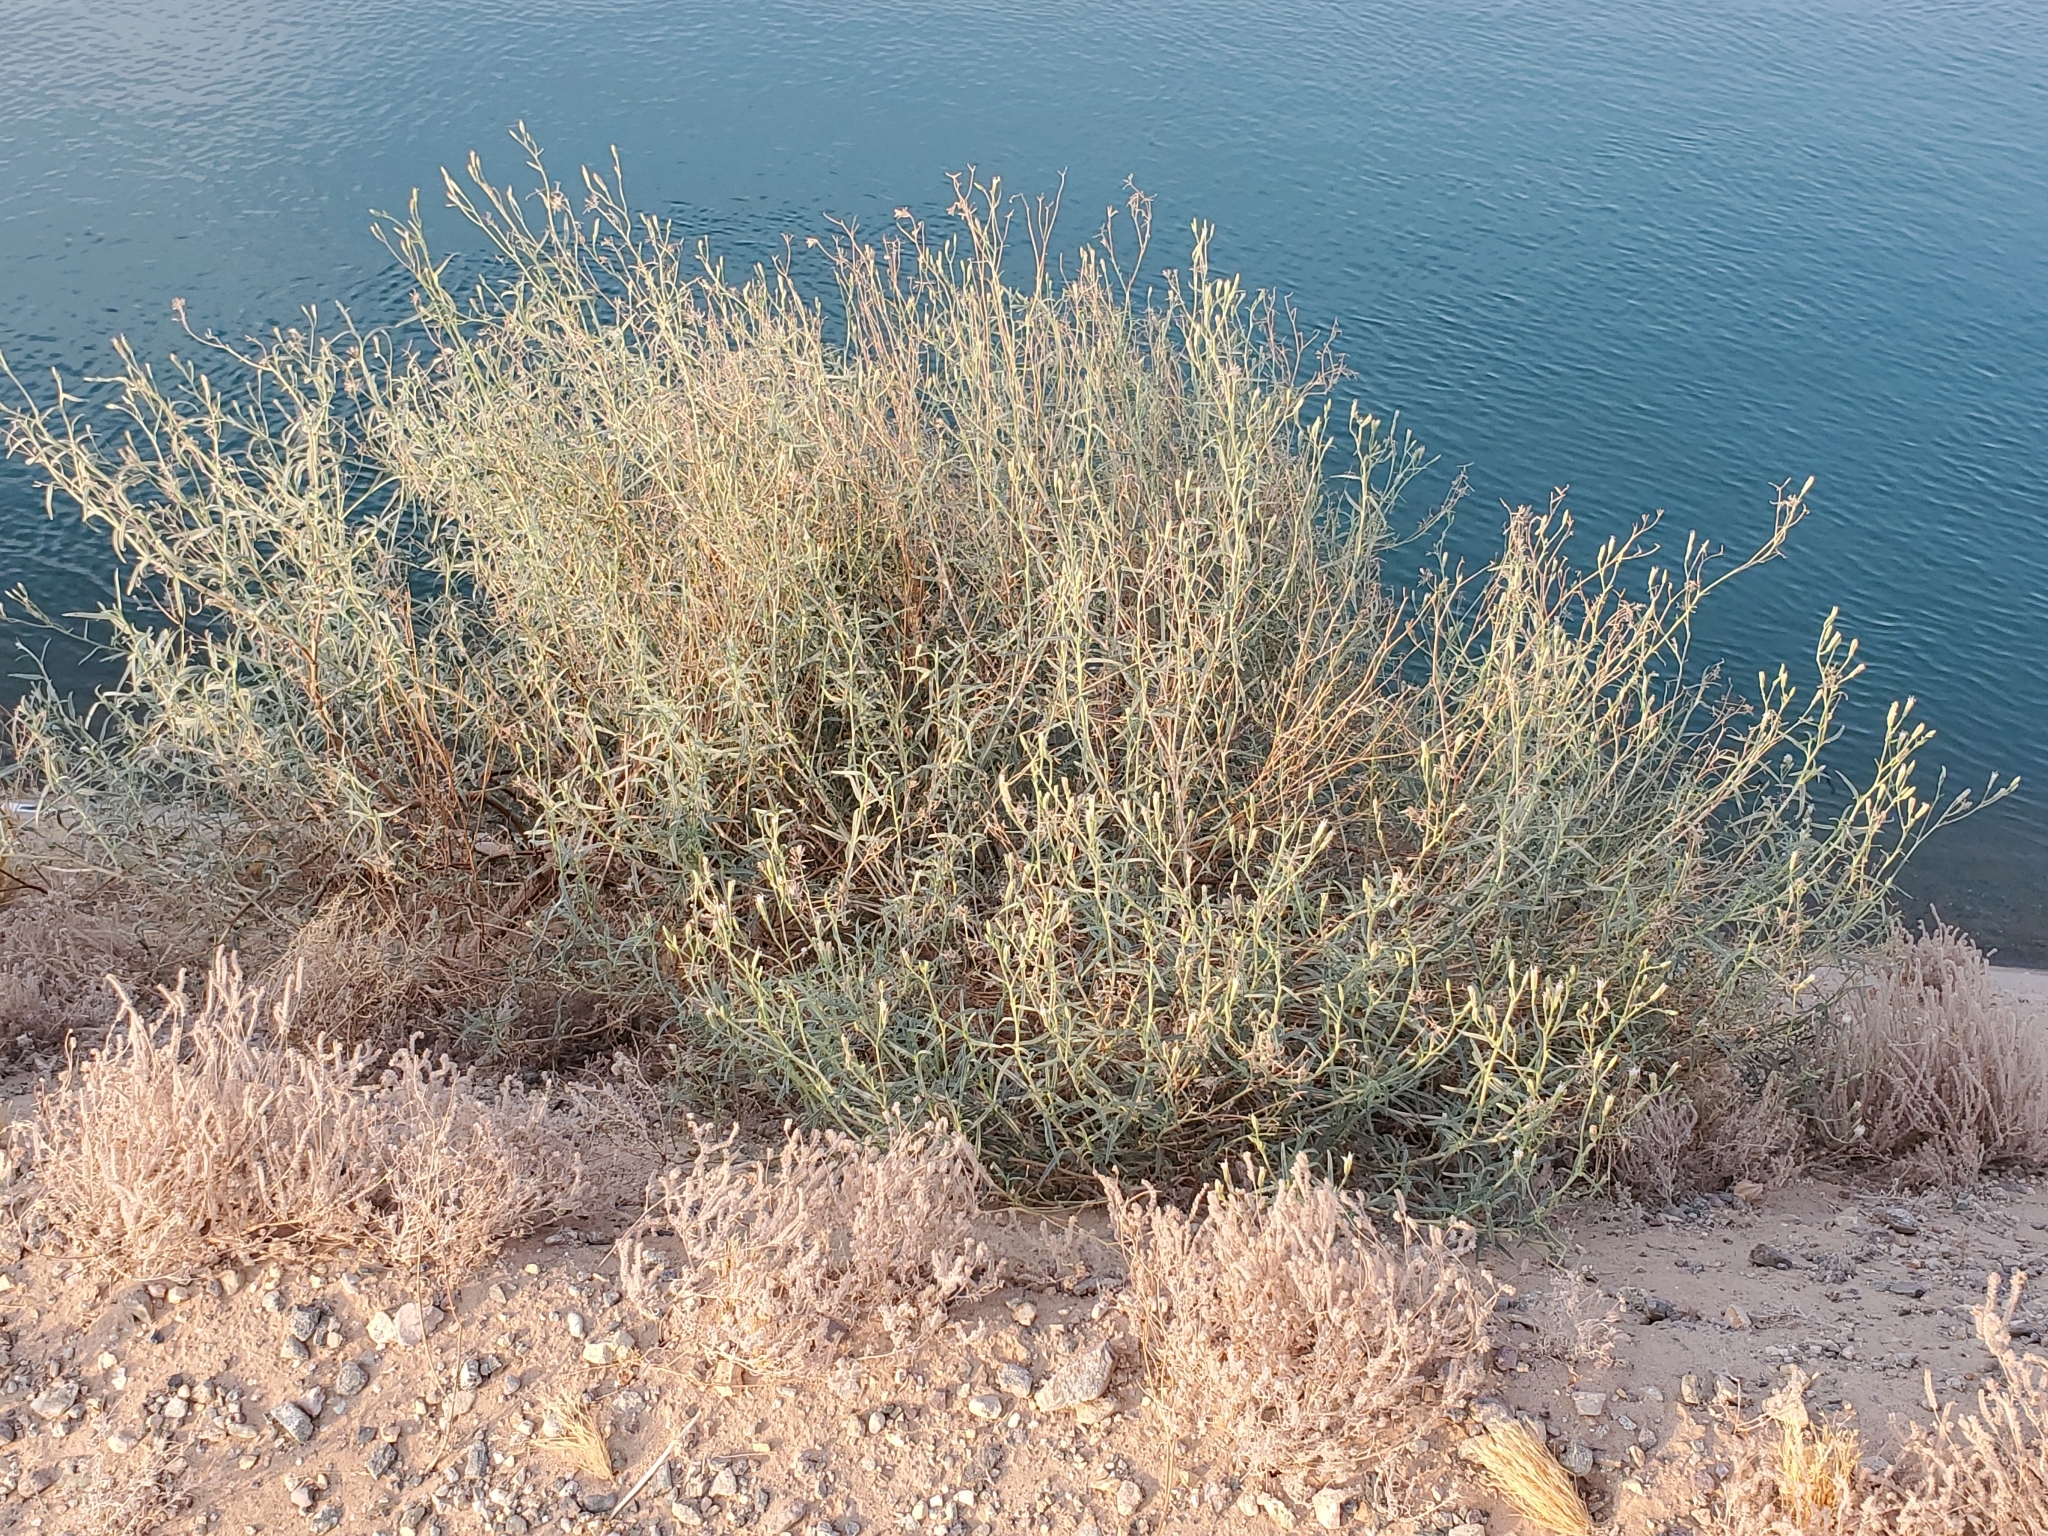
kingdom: Plantae
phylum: Tracheophyta
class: Magnoliopsida
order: Asterales
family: Asteraceae
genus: Palafoxia
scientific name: Palafoxia arida
